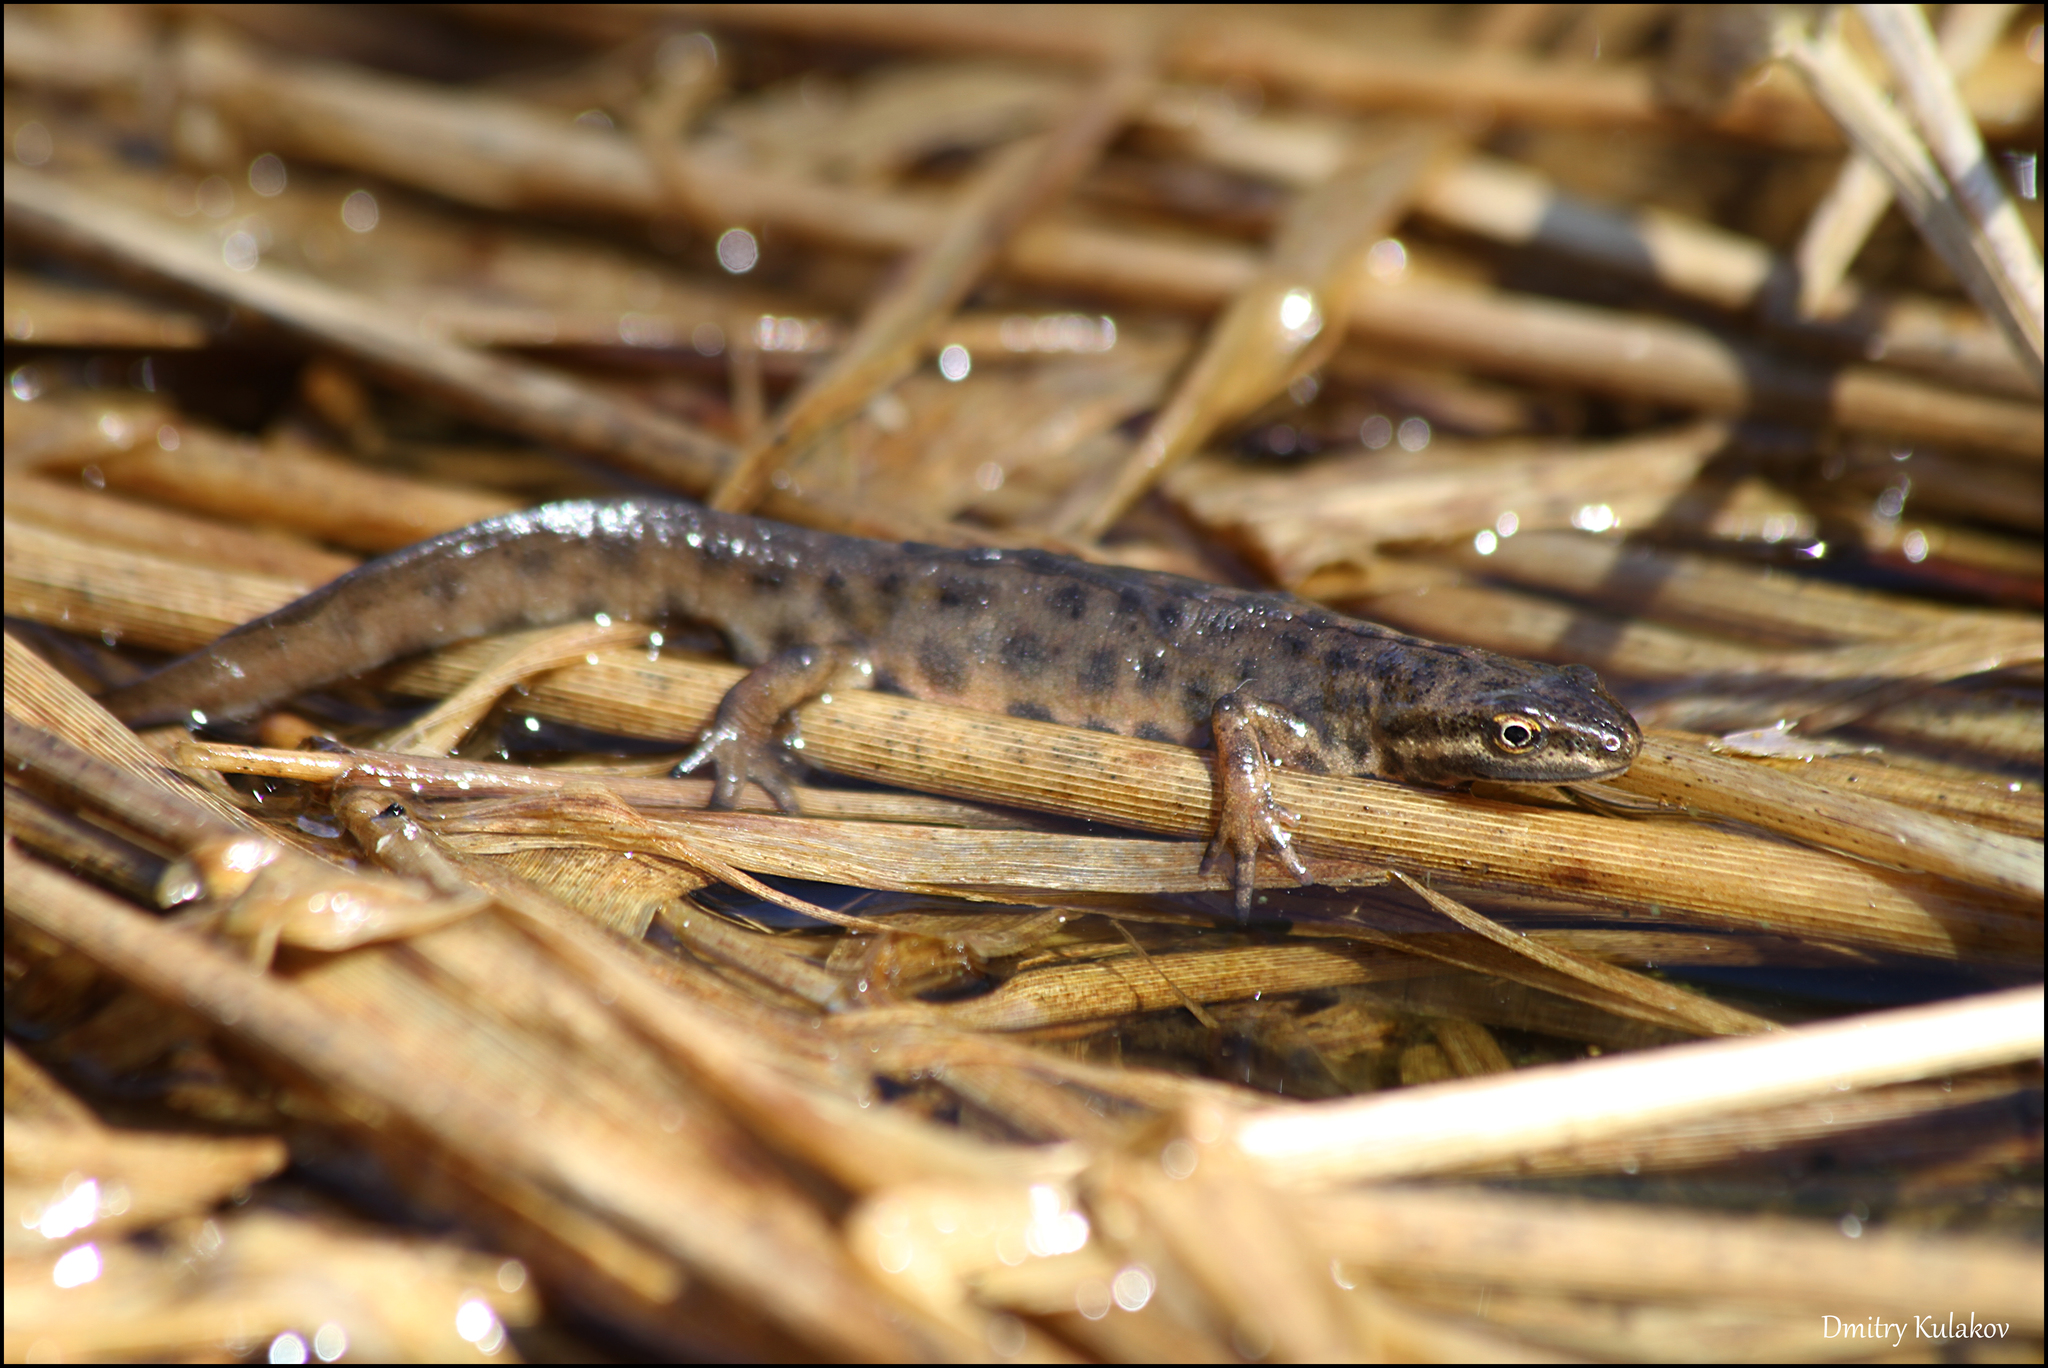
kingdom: Animalia
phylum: Chordata
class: Amphibia
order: Caudata
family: Salamandridae
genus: Lissotriton
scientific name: Lissotriton vulgaris
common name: Smooth newt
